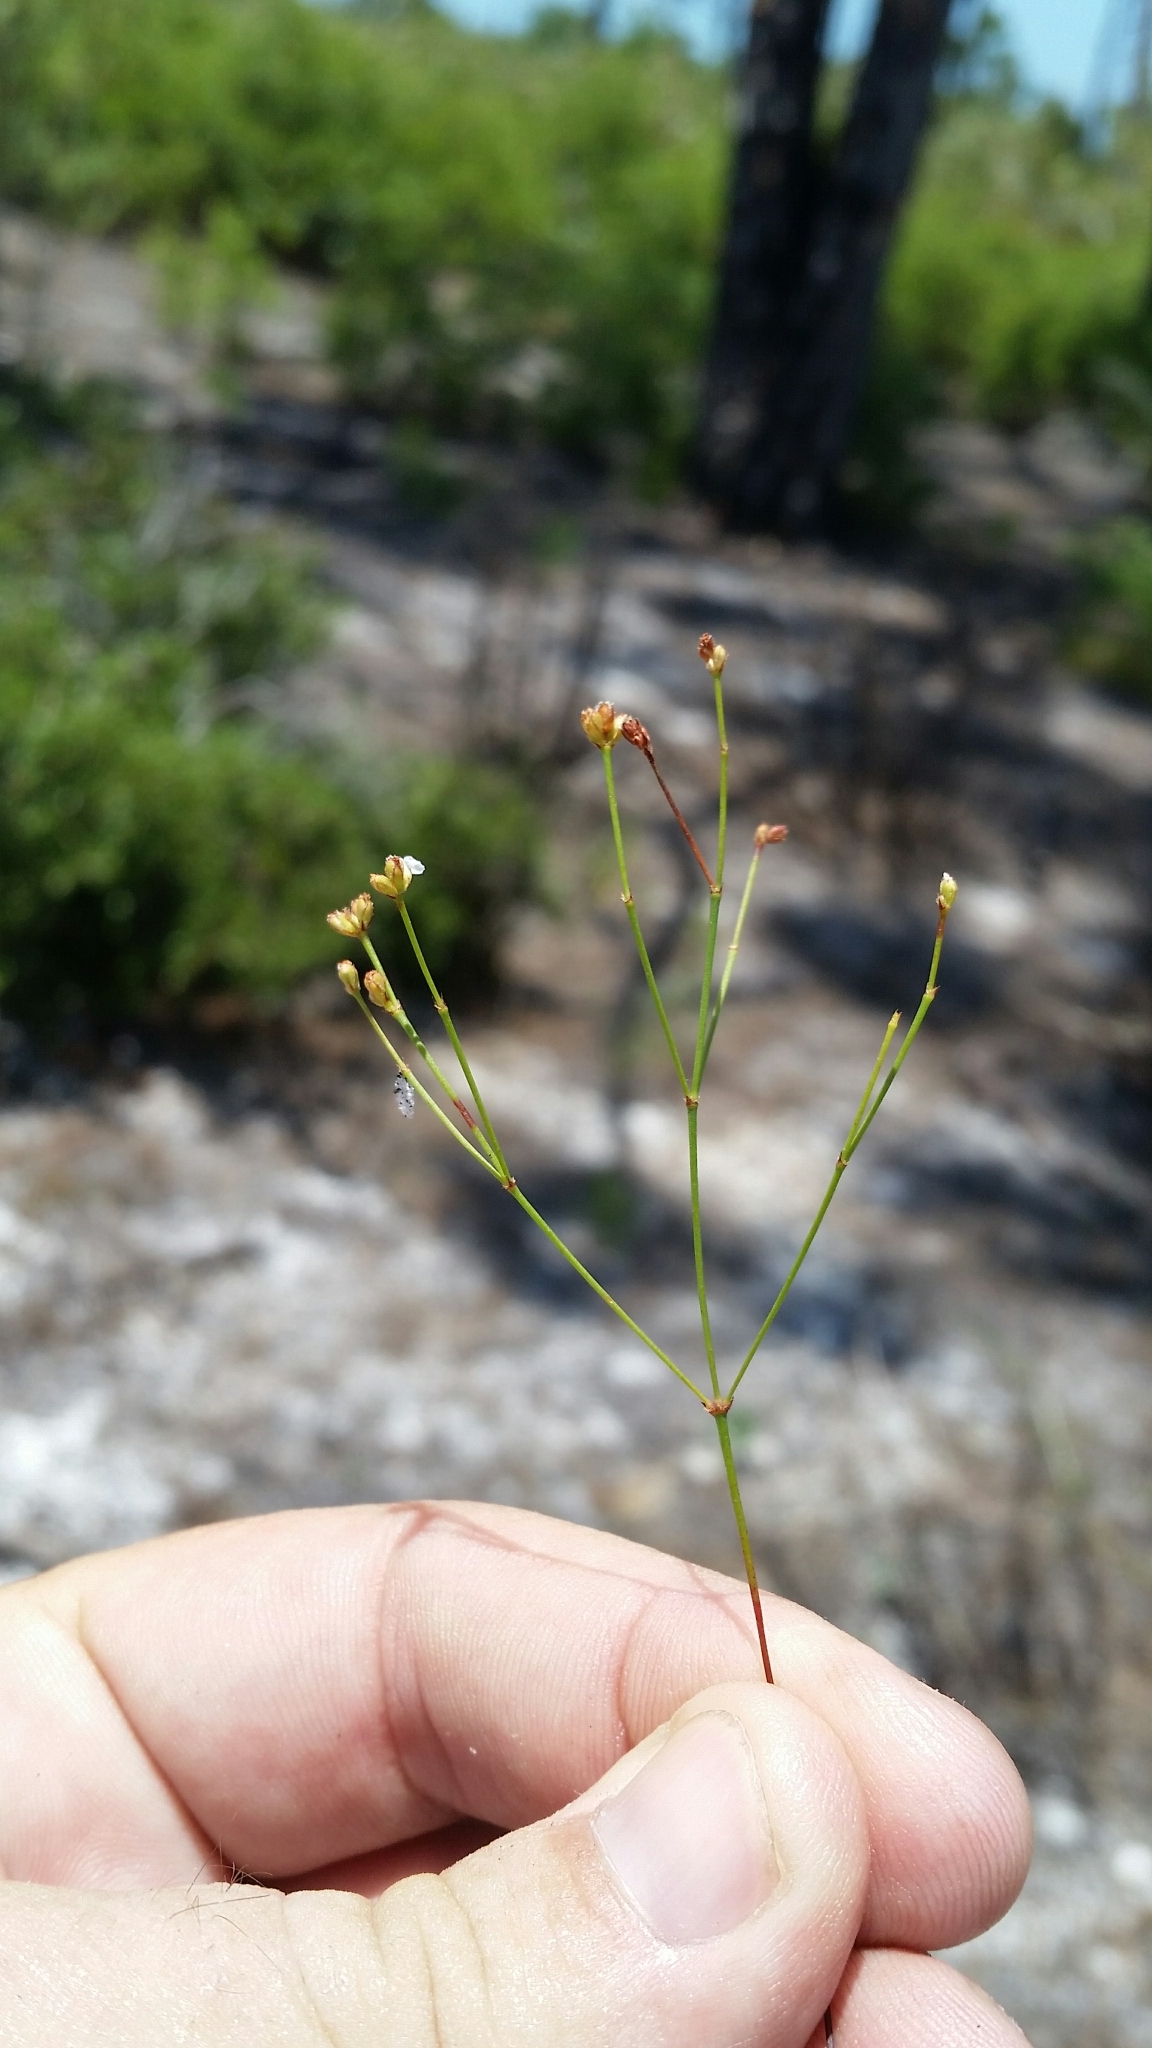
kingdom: Plantae
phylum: Tracheophyta
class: Magnoliopsida
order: Caryophyllales
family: Caryophyllaceae
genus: Stipulicida
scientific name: Stipulicida setacea
